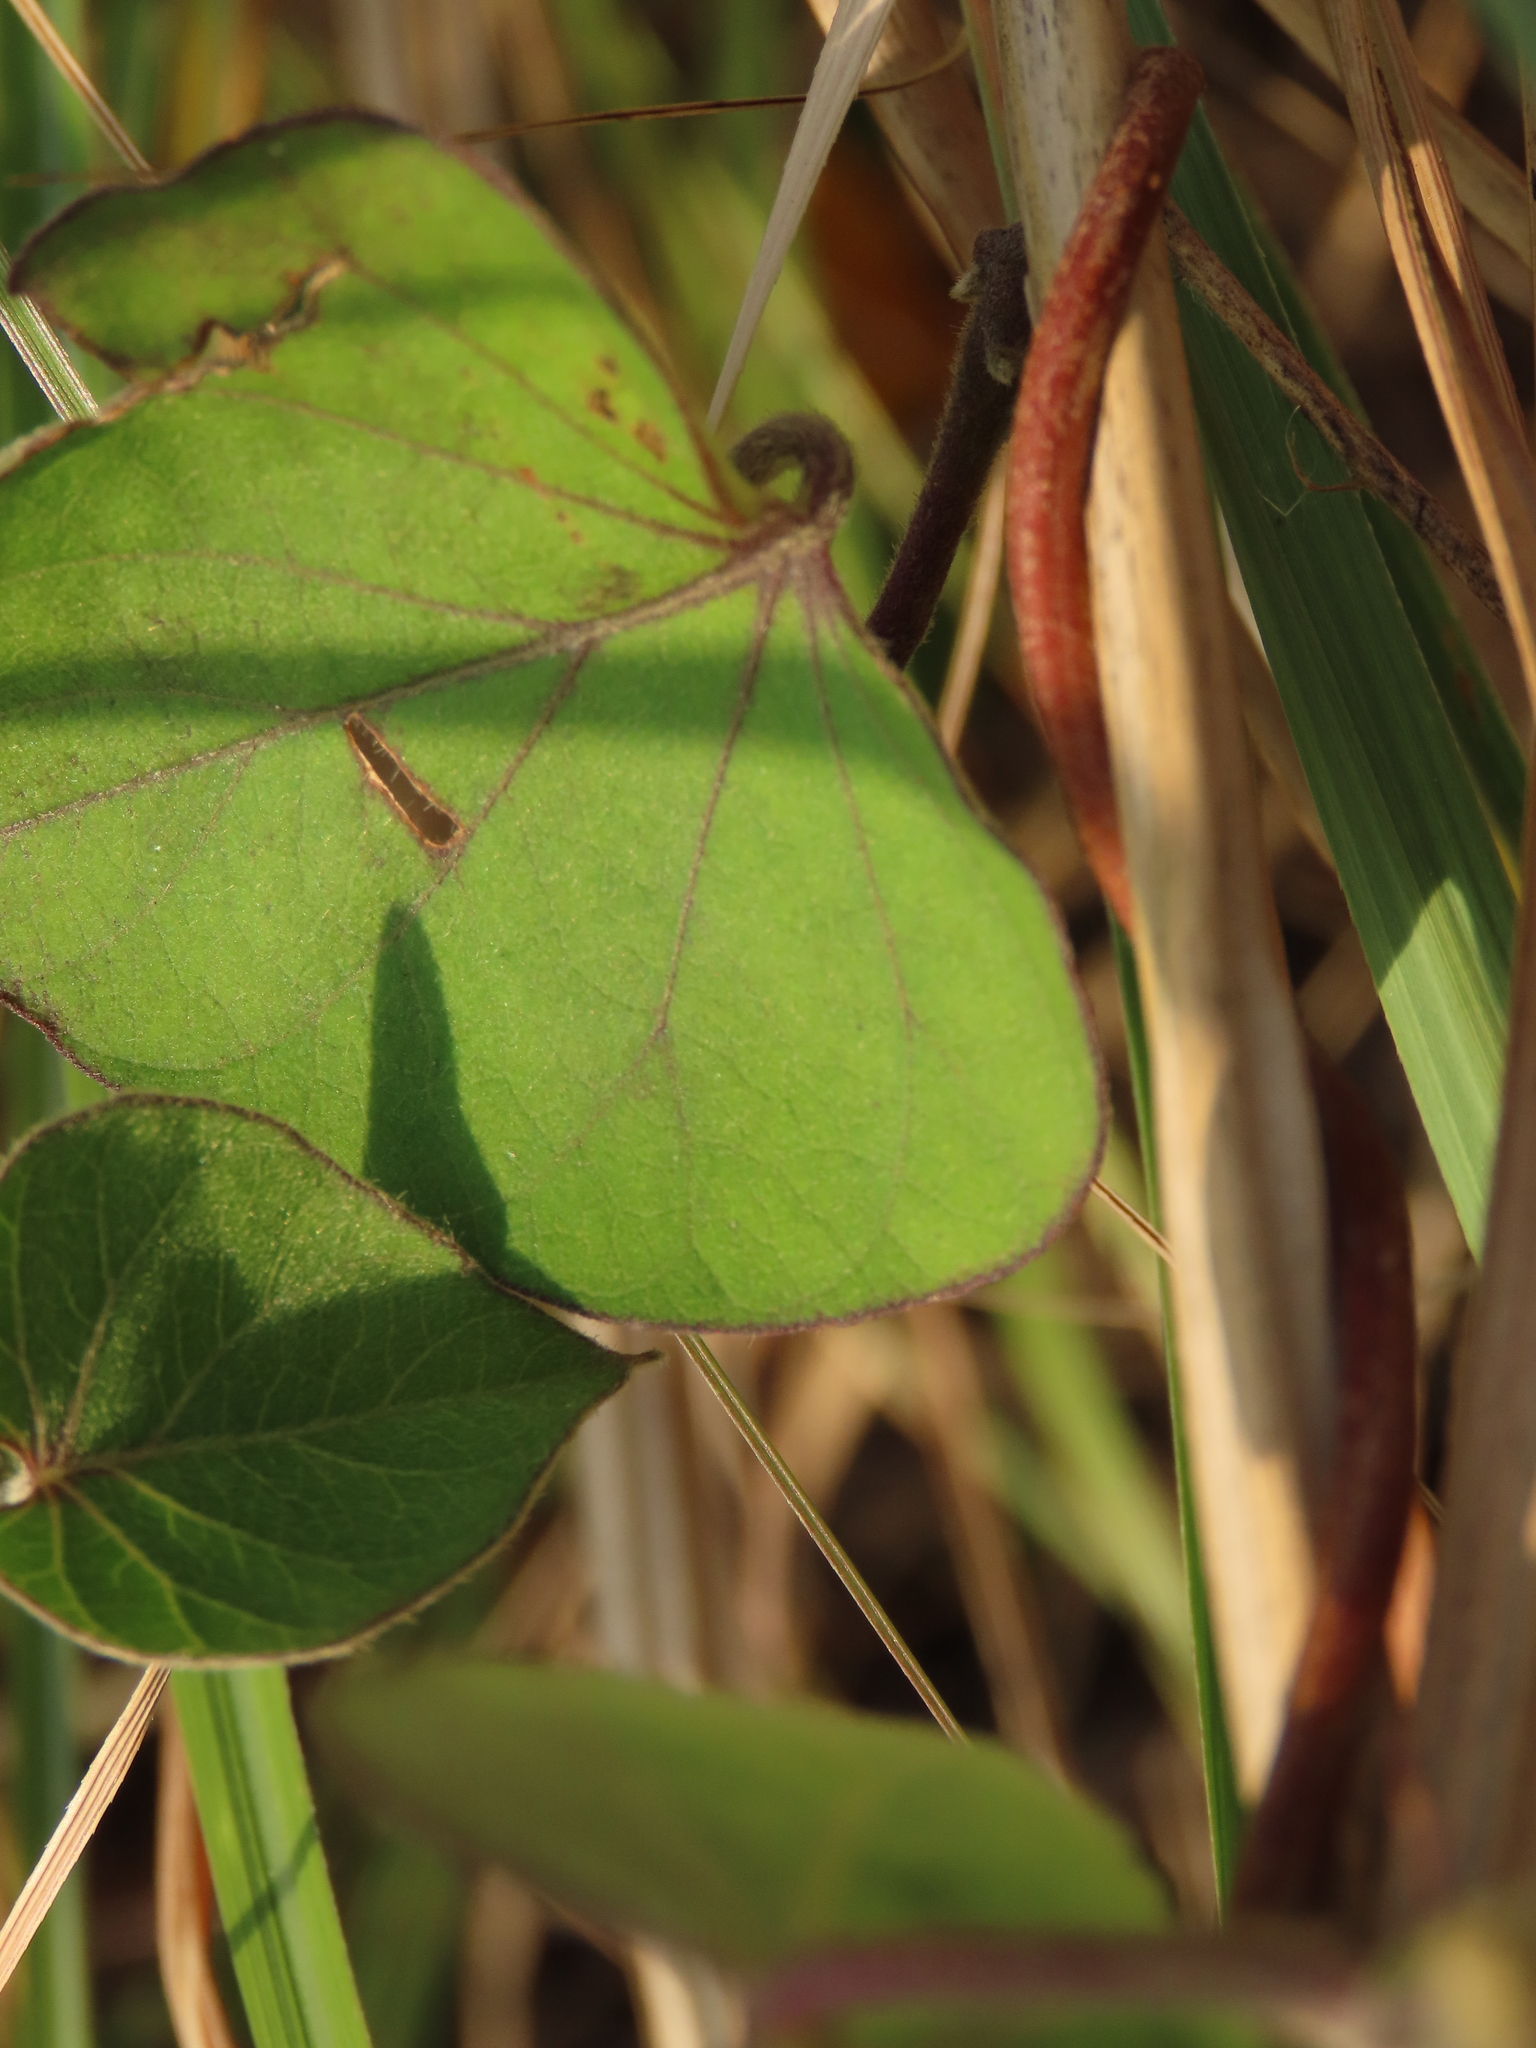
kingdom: Plantae
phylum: Tracheophyta
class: Magnoliopsida
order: Solanales
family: Convolvulaceae
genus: Ipomoea
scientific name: Ipomoea indica
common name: Blue dawnflower
